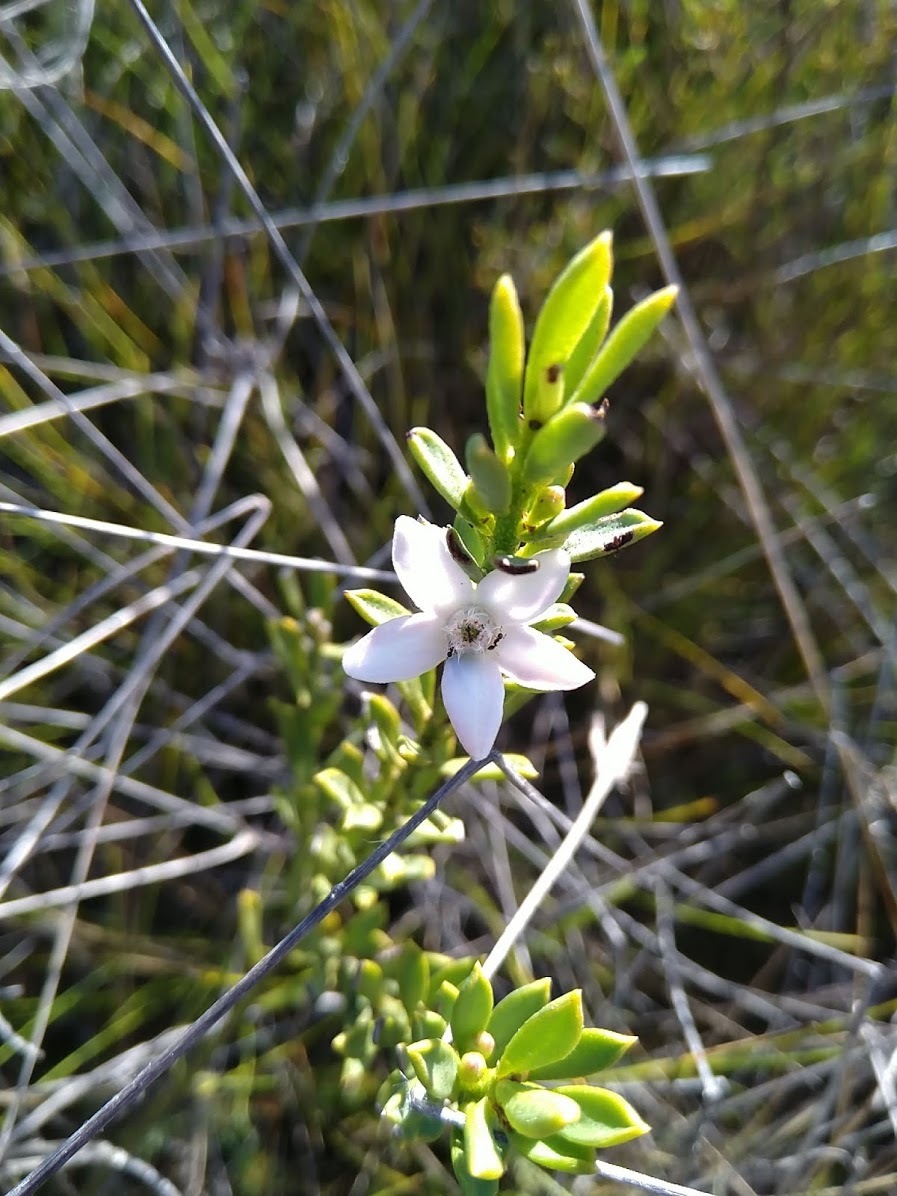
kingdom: Plantae
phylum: Tracheophyta
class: Magnoliopsida
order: Sapindales
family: Rutaceae
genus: Philotheca
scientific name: Philotheca queenslandica
